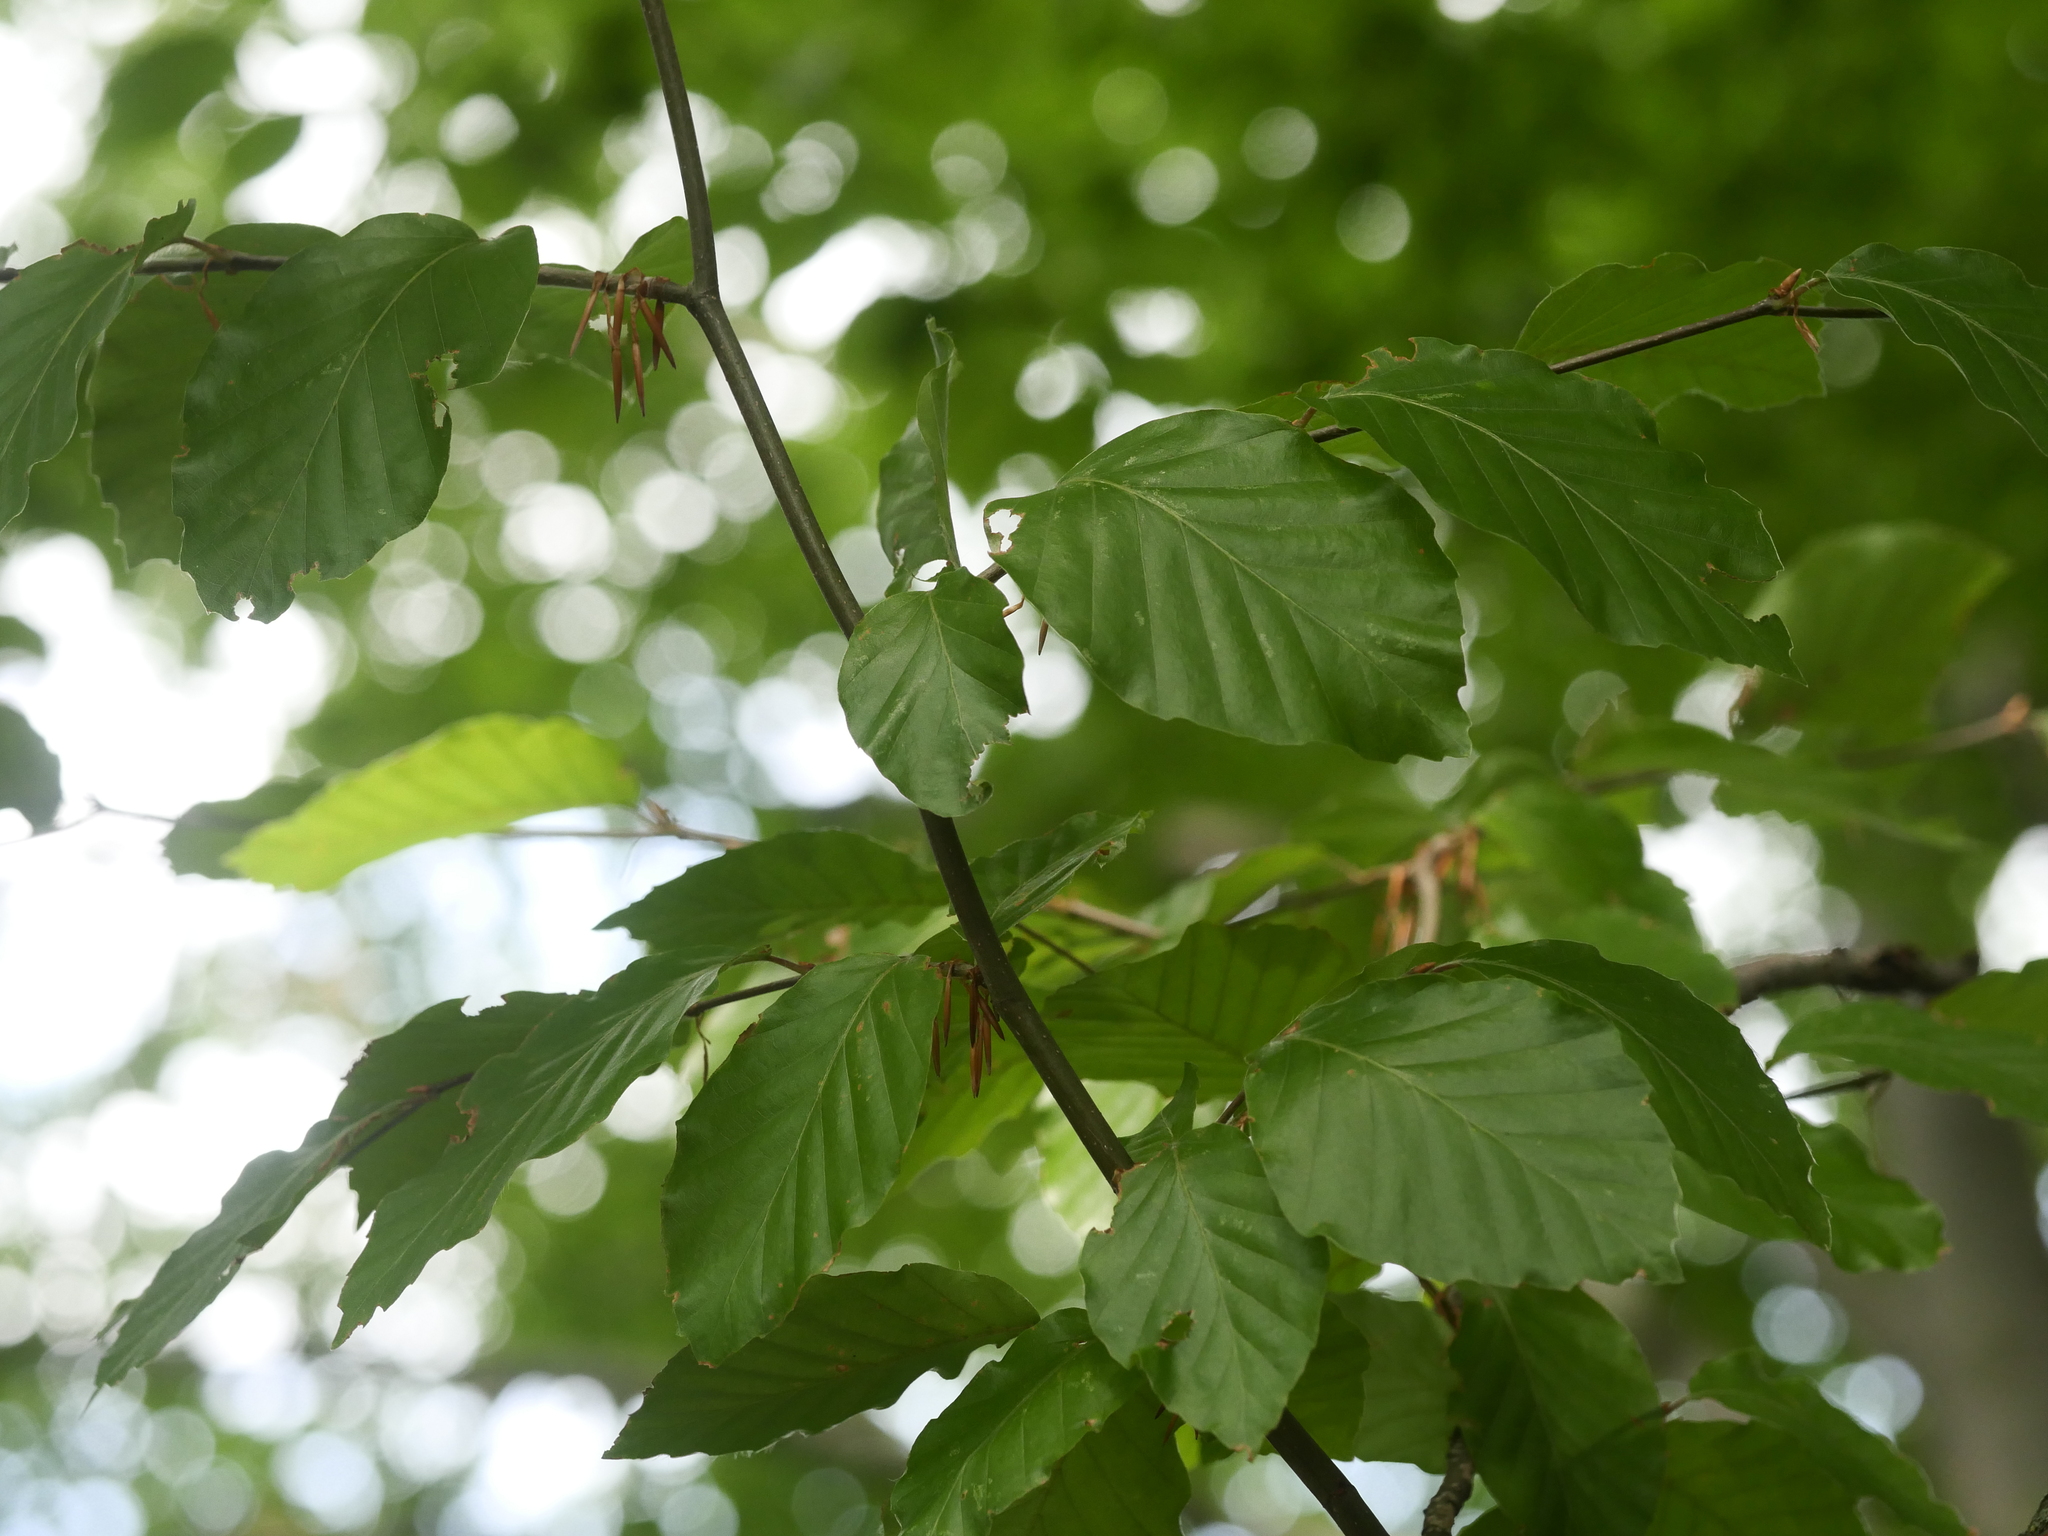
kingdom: Plantae
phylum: Tracheophyta
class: Magnoliopsida
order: Fagales
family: Fagaceae
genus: Fagus
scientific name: Fagus sylvatica
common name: Beech
